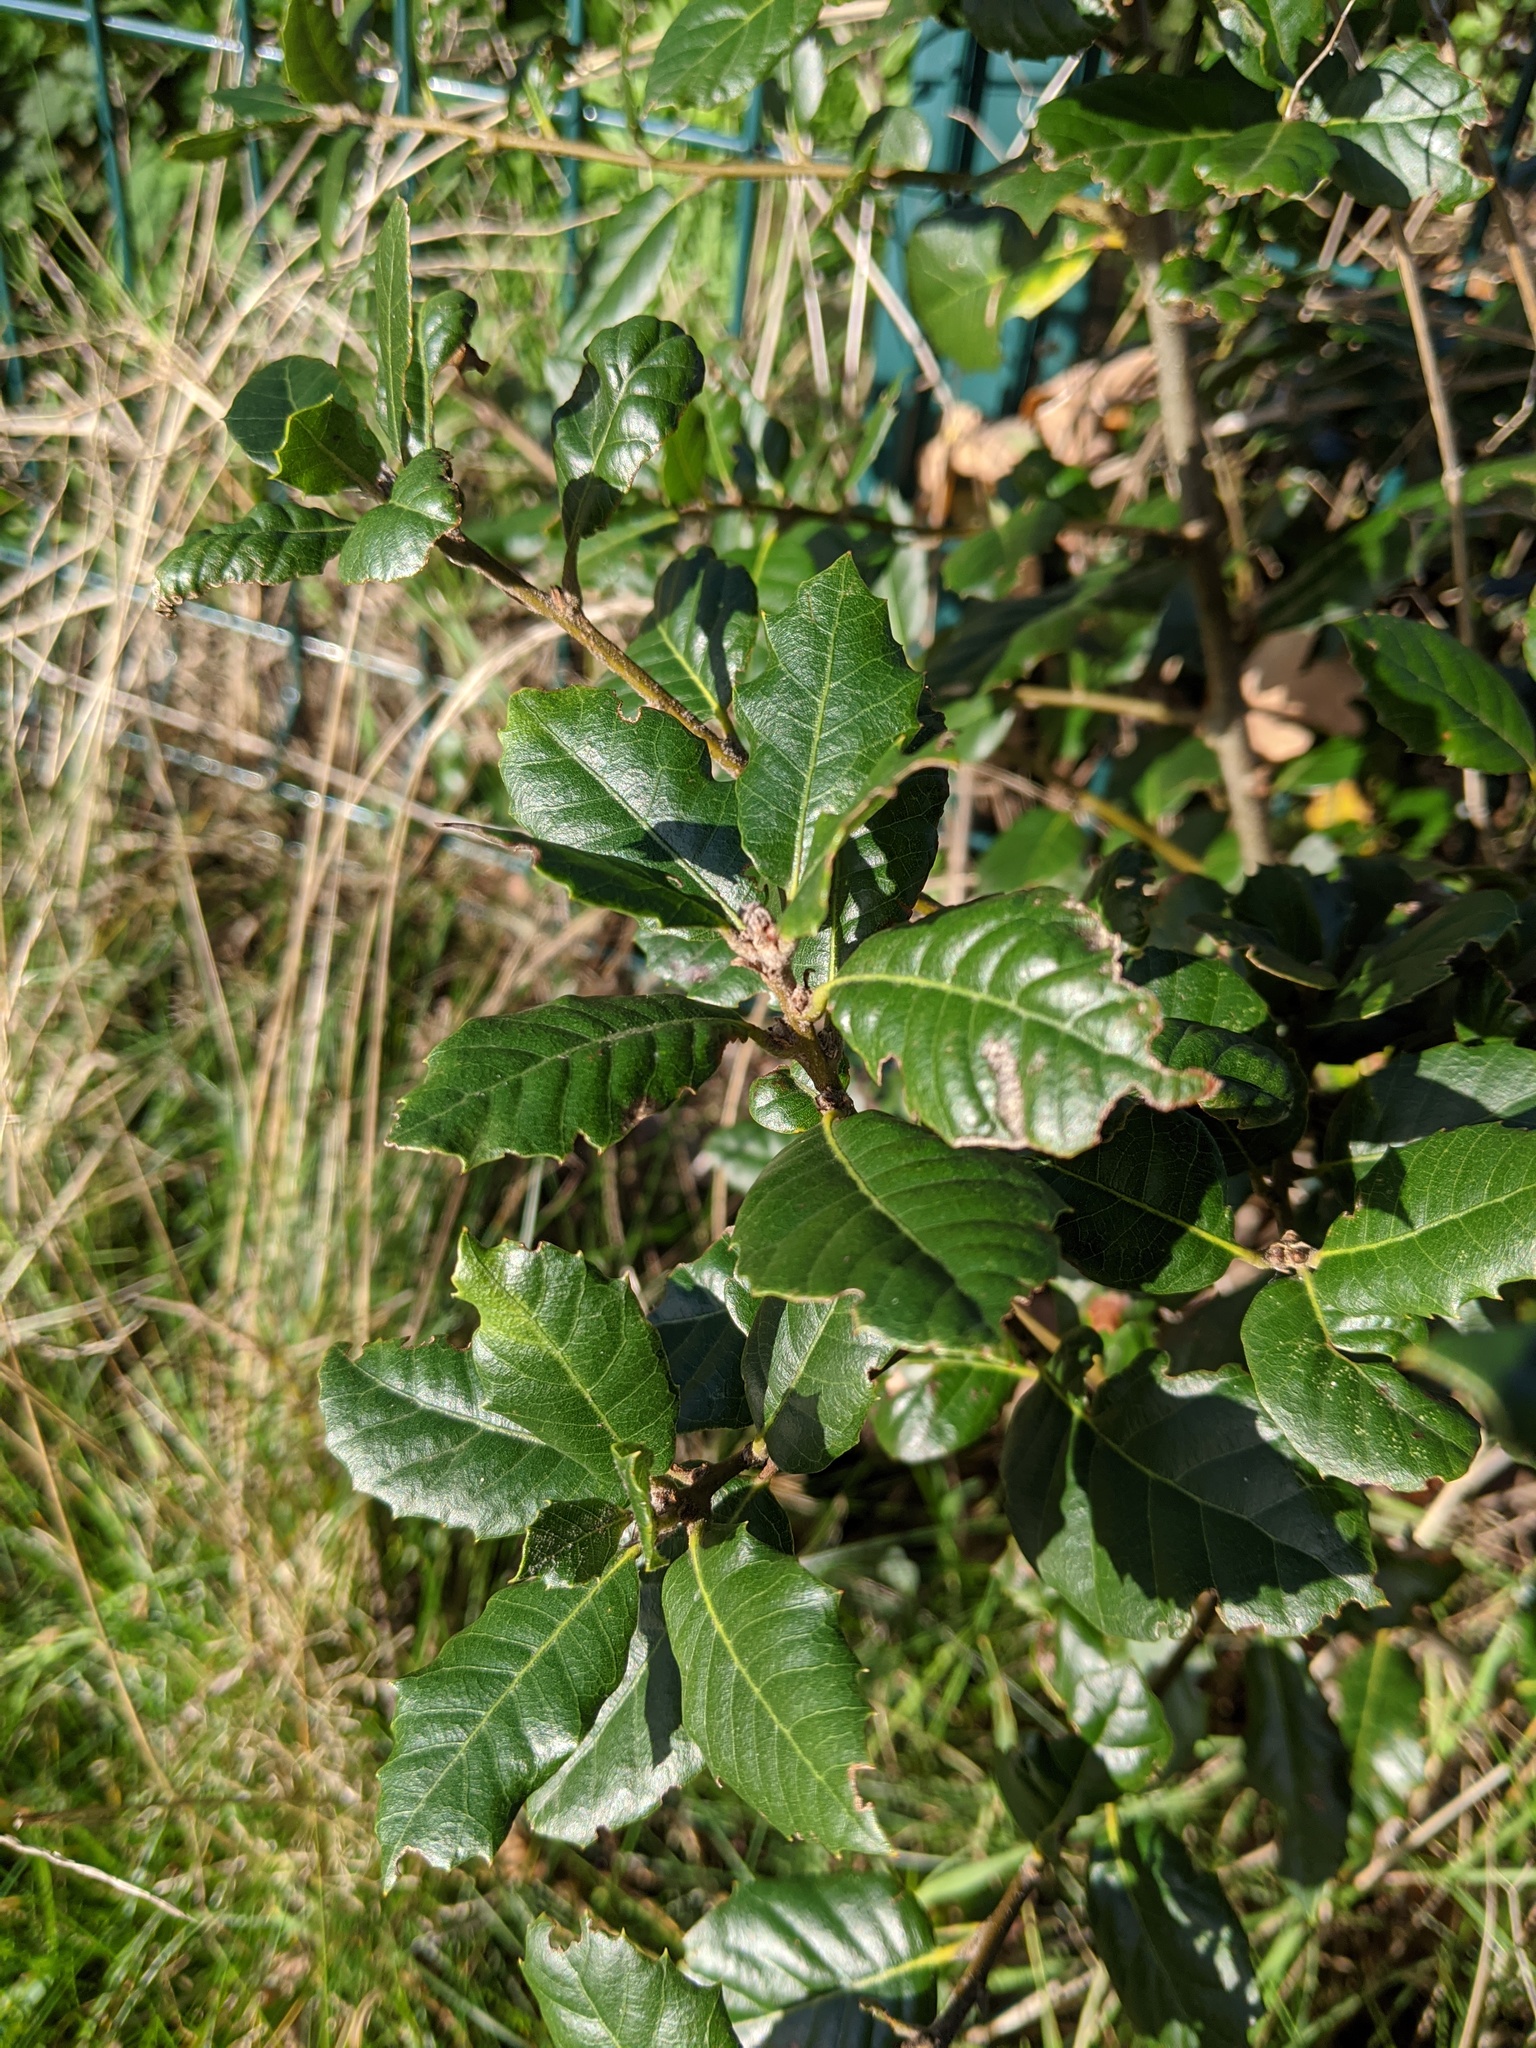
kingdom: Plantae
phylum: Tracheophyta
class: Magnoliopsida
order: Fagales
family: Fagaceae
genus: Quercus
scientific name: Quercus ilex
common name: Evergreen oak
